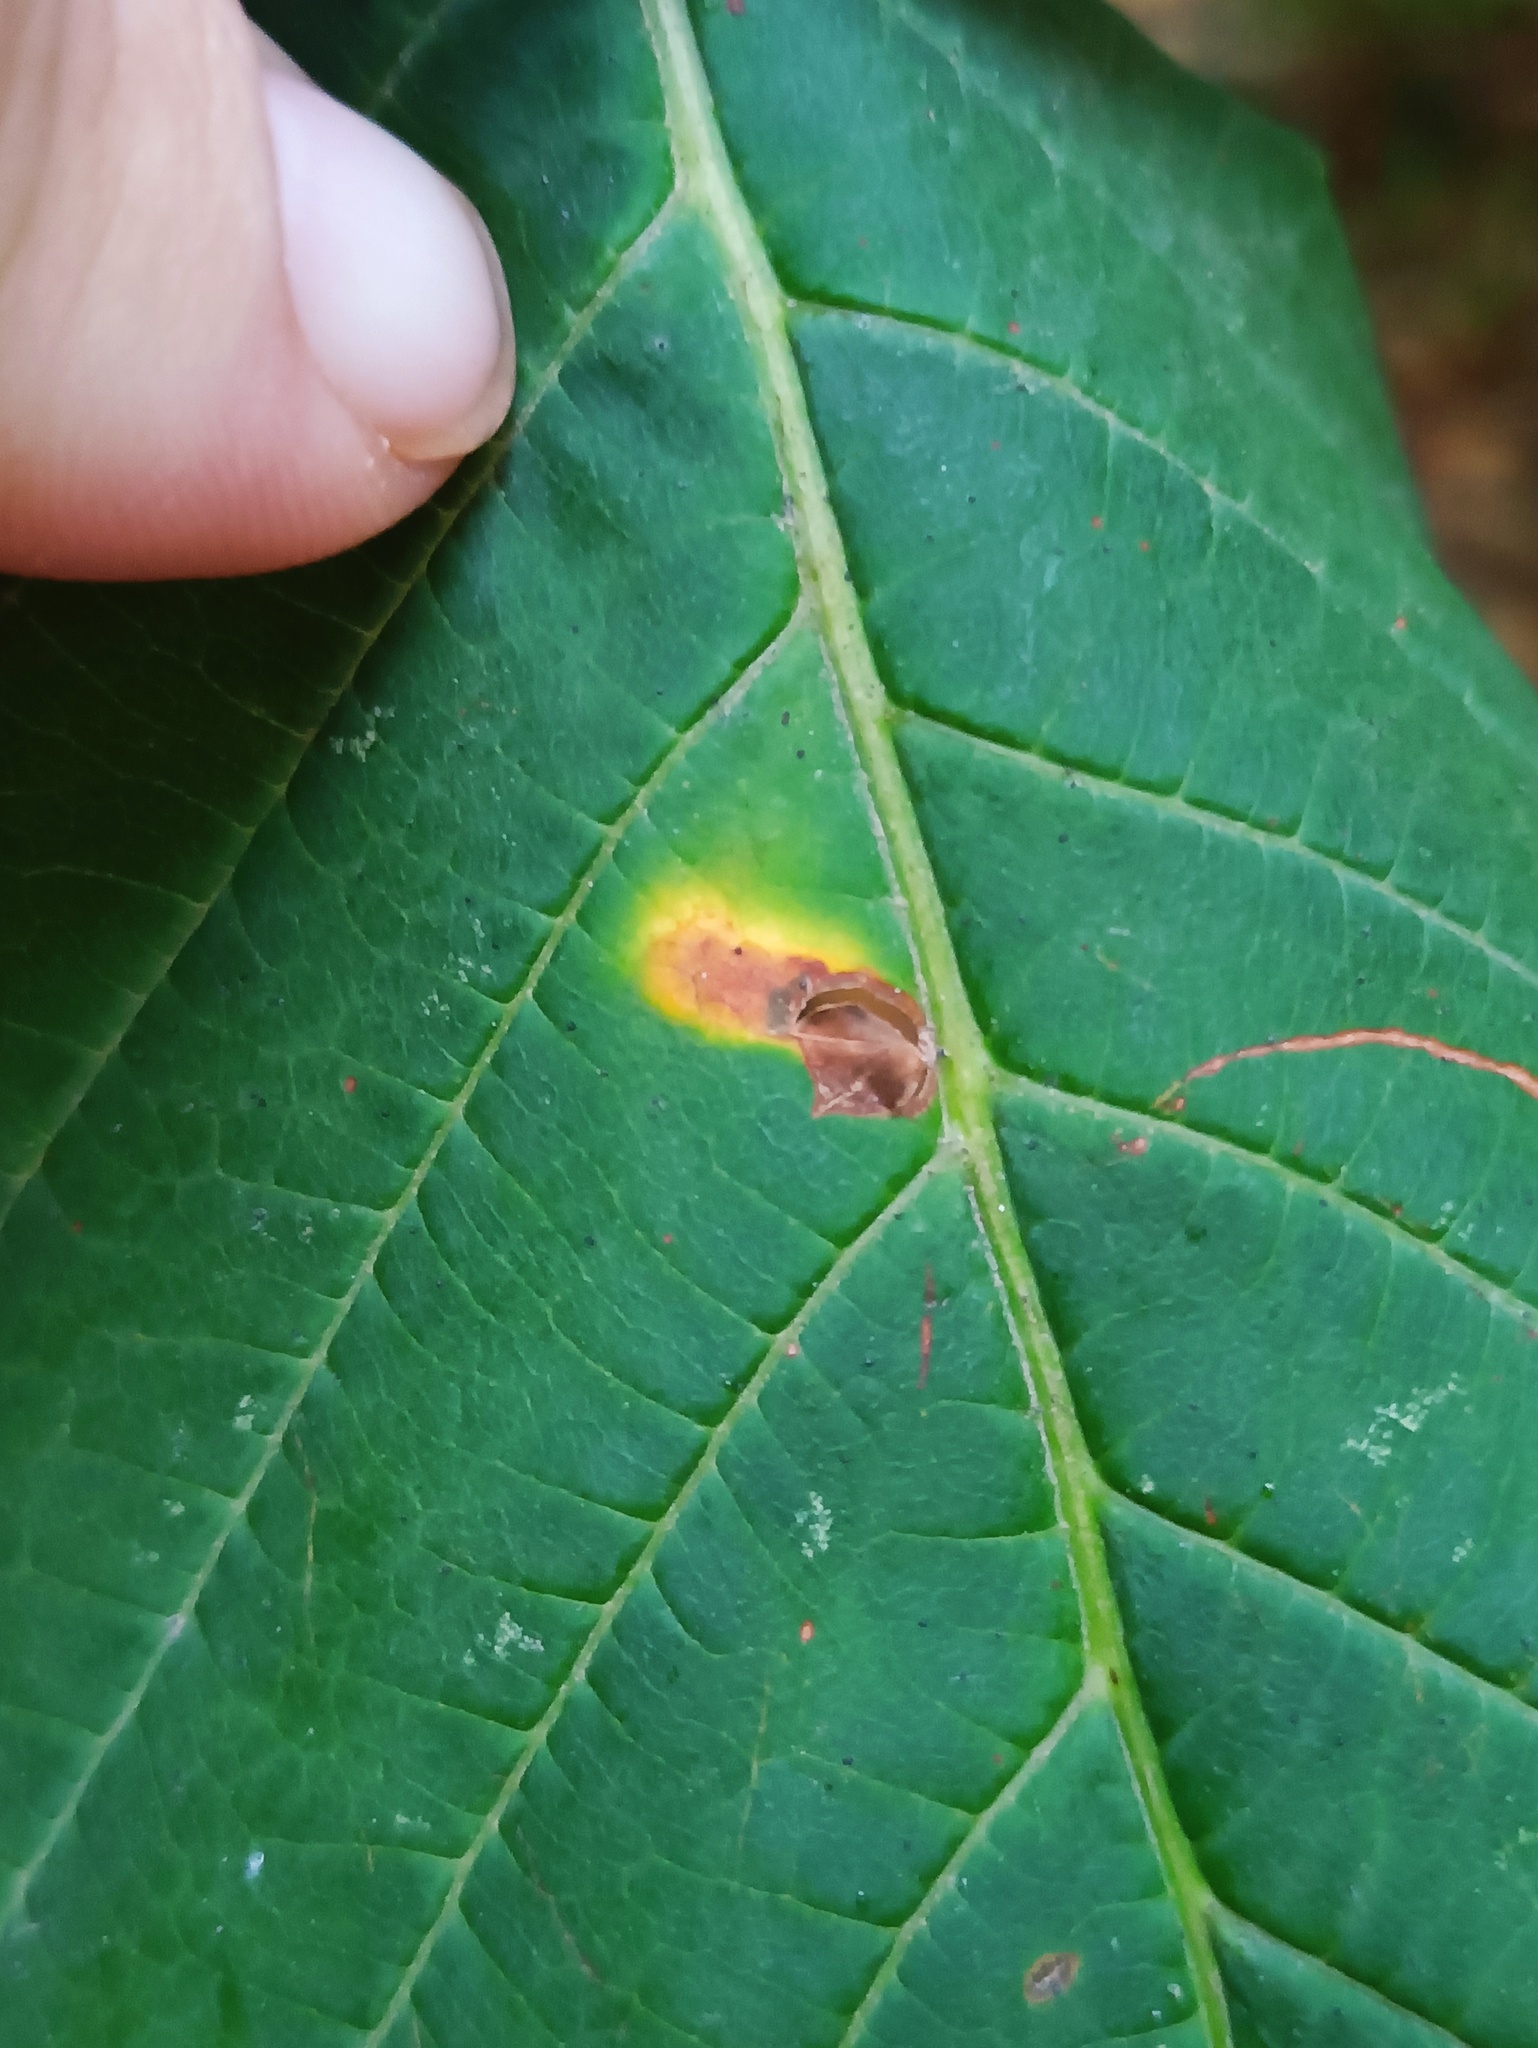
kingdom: Animalia
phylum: Arthropoda
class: Insecta
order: Lepidoptera
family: Gracillariidae
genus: Cameraria
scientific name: Cameraria ohridella
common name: Horse-chestnut leaf-miner
